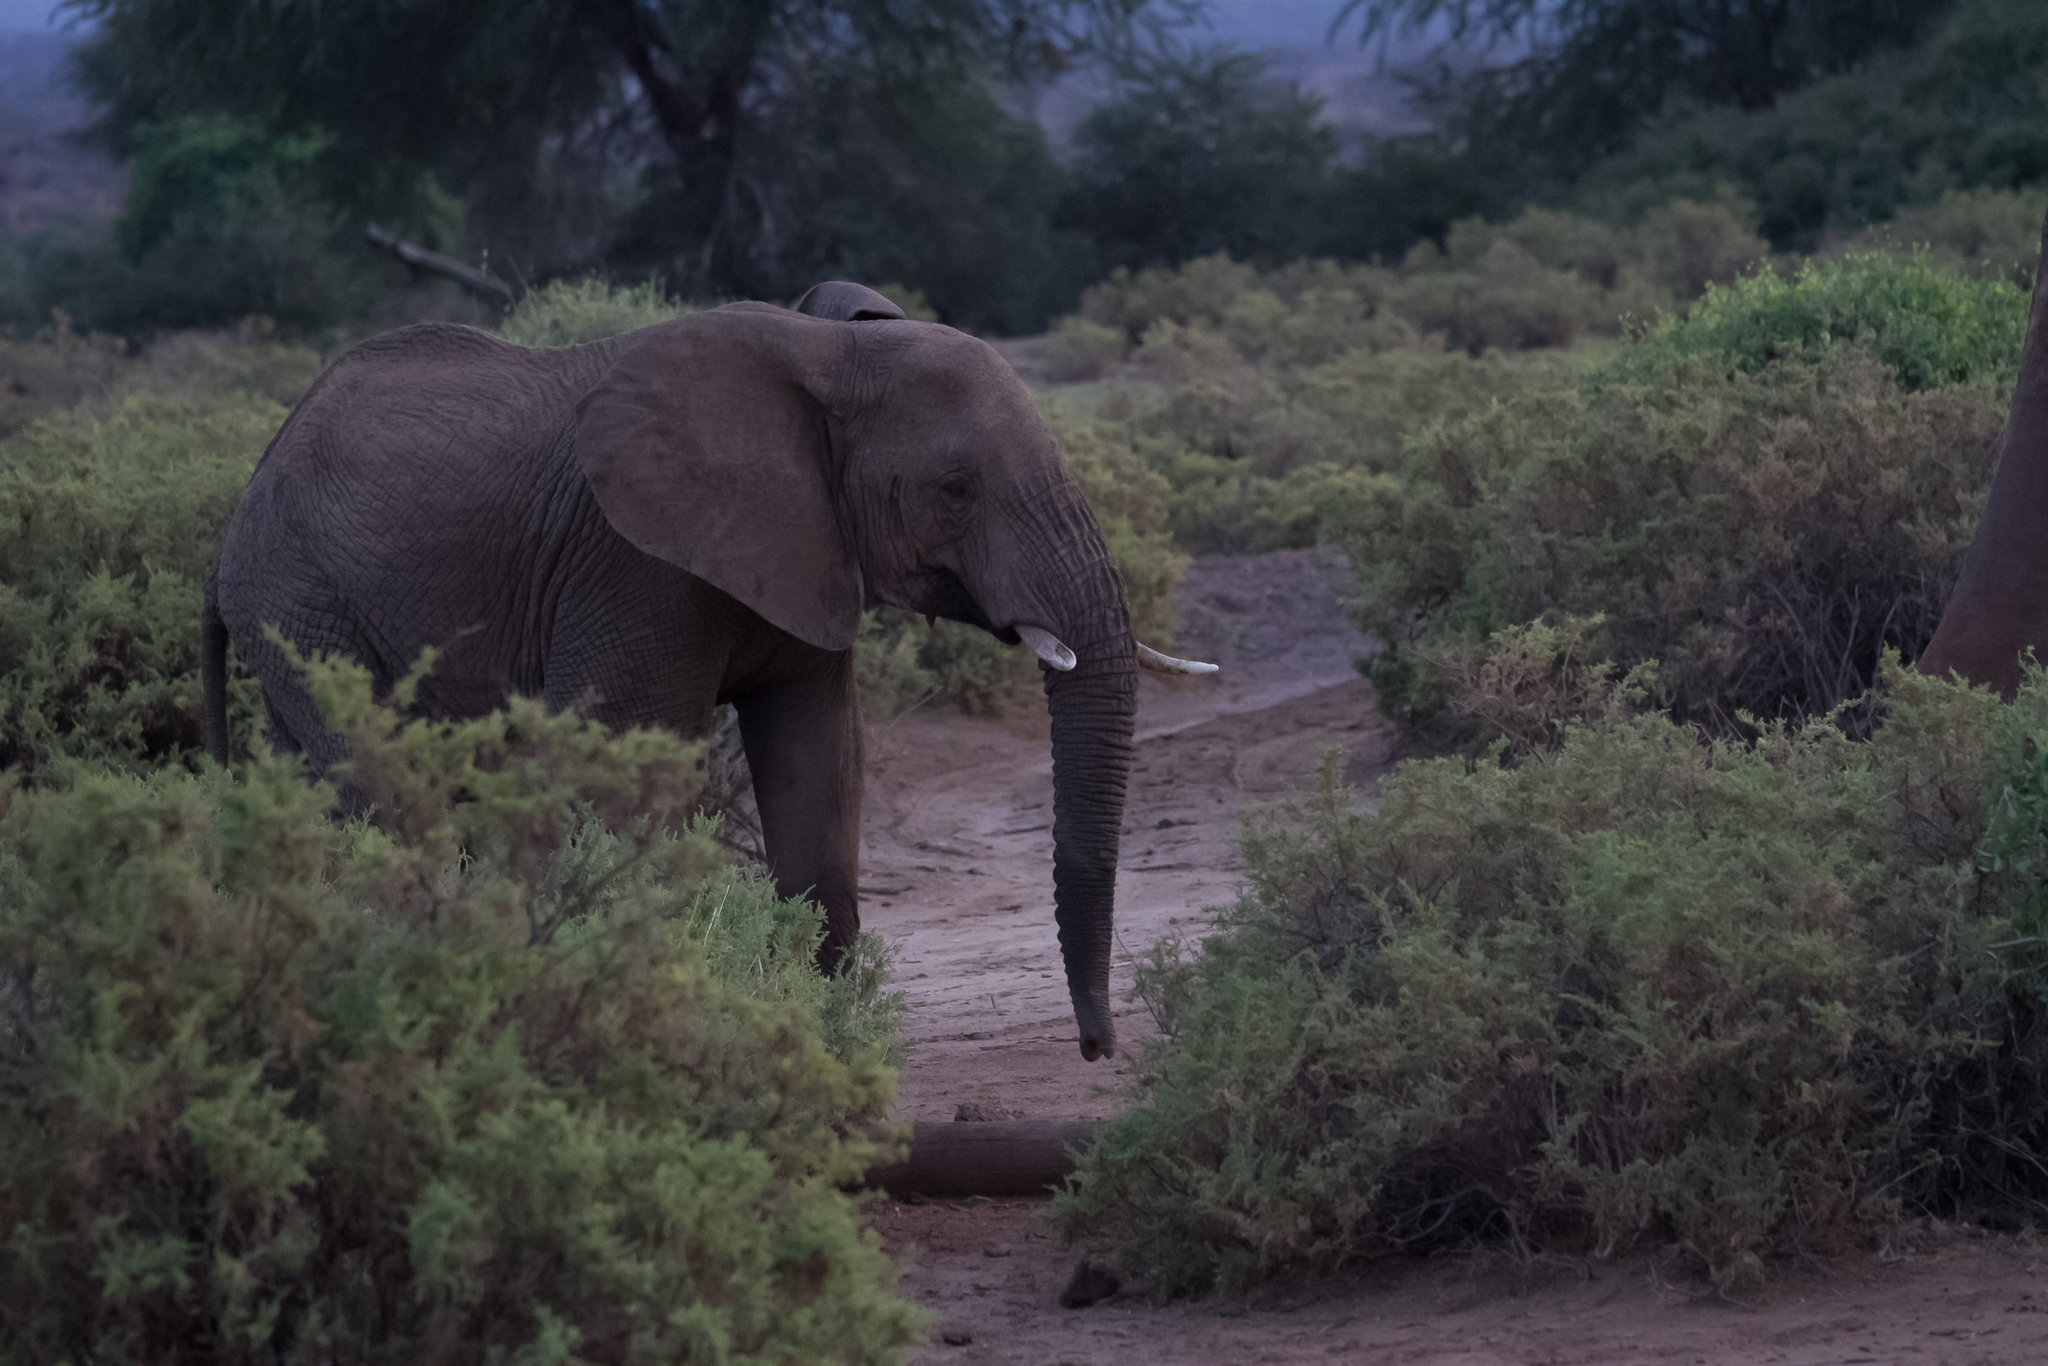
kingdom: Animalia
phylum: Chordata
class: Mammalia
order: Proboscidea
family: Elephantidae
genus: Loxodonta
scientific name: Loxodonta africana
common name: African elephant
